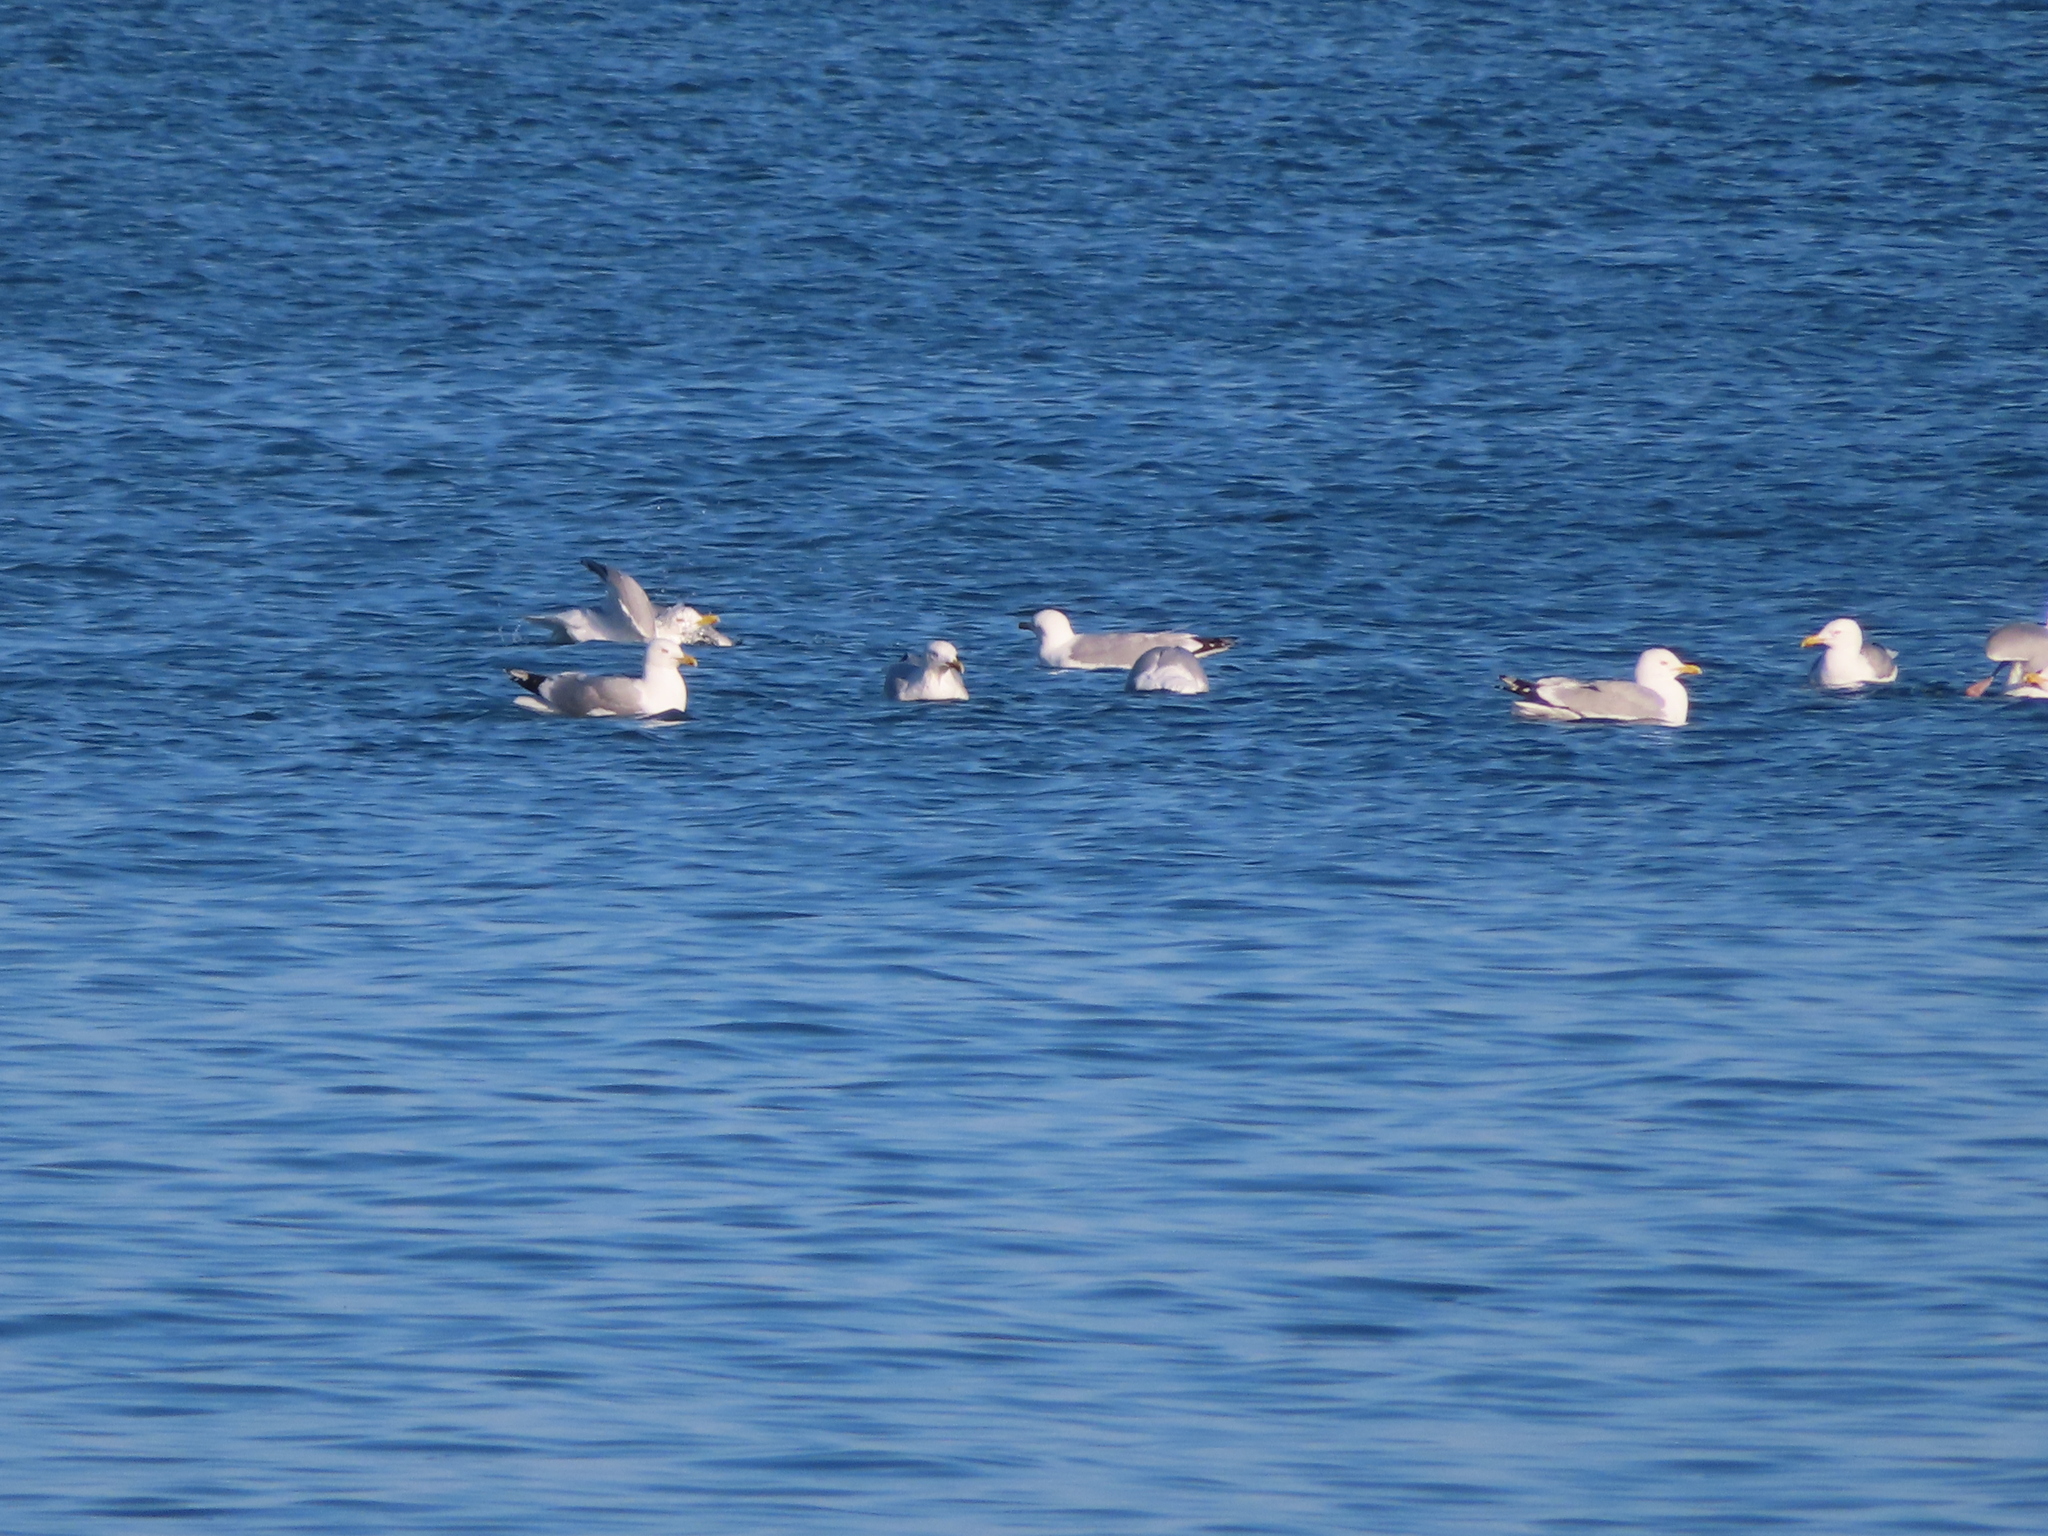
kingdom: Animalia
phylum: Chordata
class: Aves
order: Charadriiformes
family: Laridae
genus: Larus
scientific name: Larus argentatus
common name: Herring gull
